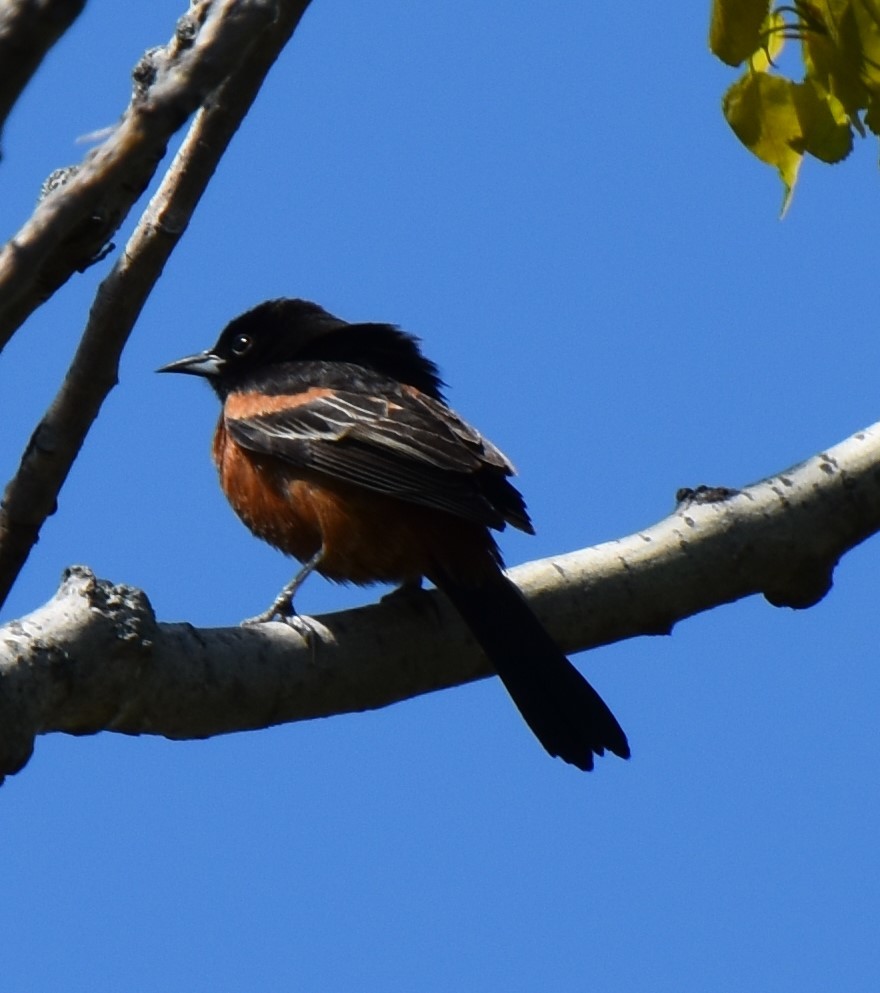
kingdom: Animalia
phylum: Chordata
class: Aves
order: Passeriformes
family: Icteridae
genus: Icterus
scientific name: Icterus spurius
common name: Orchard oriole
